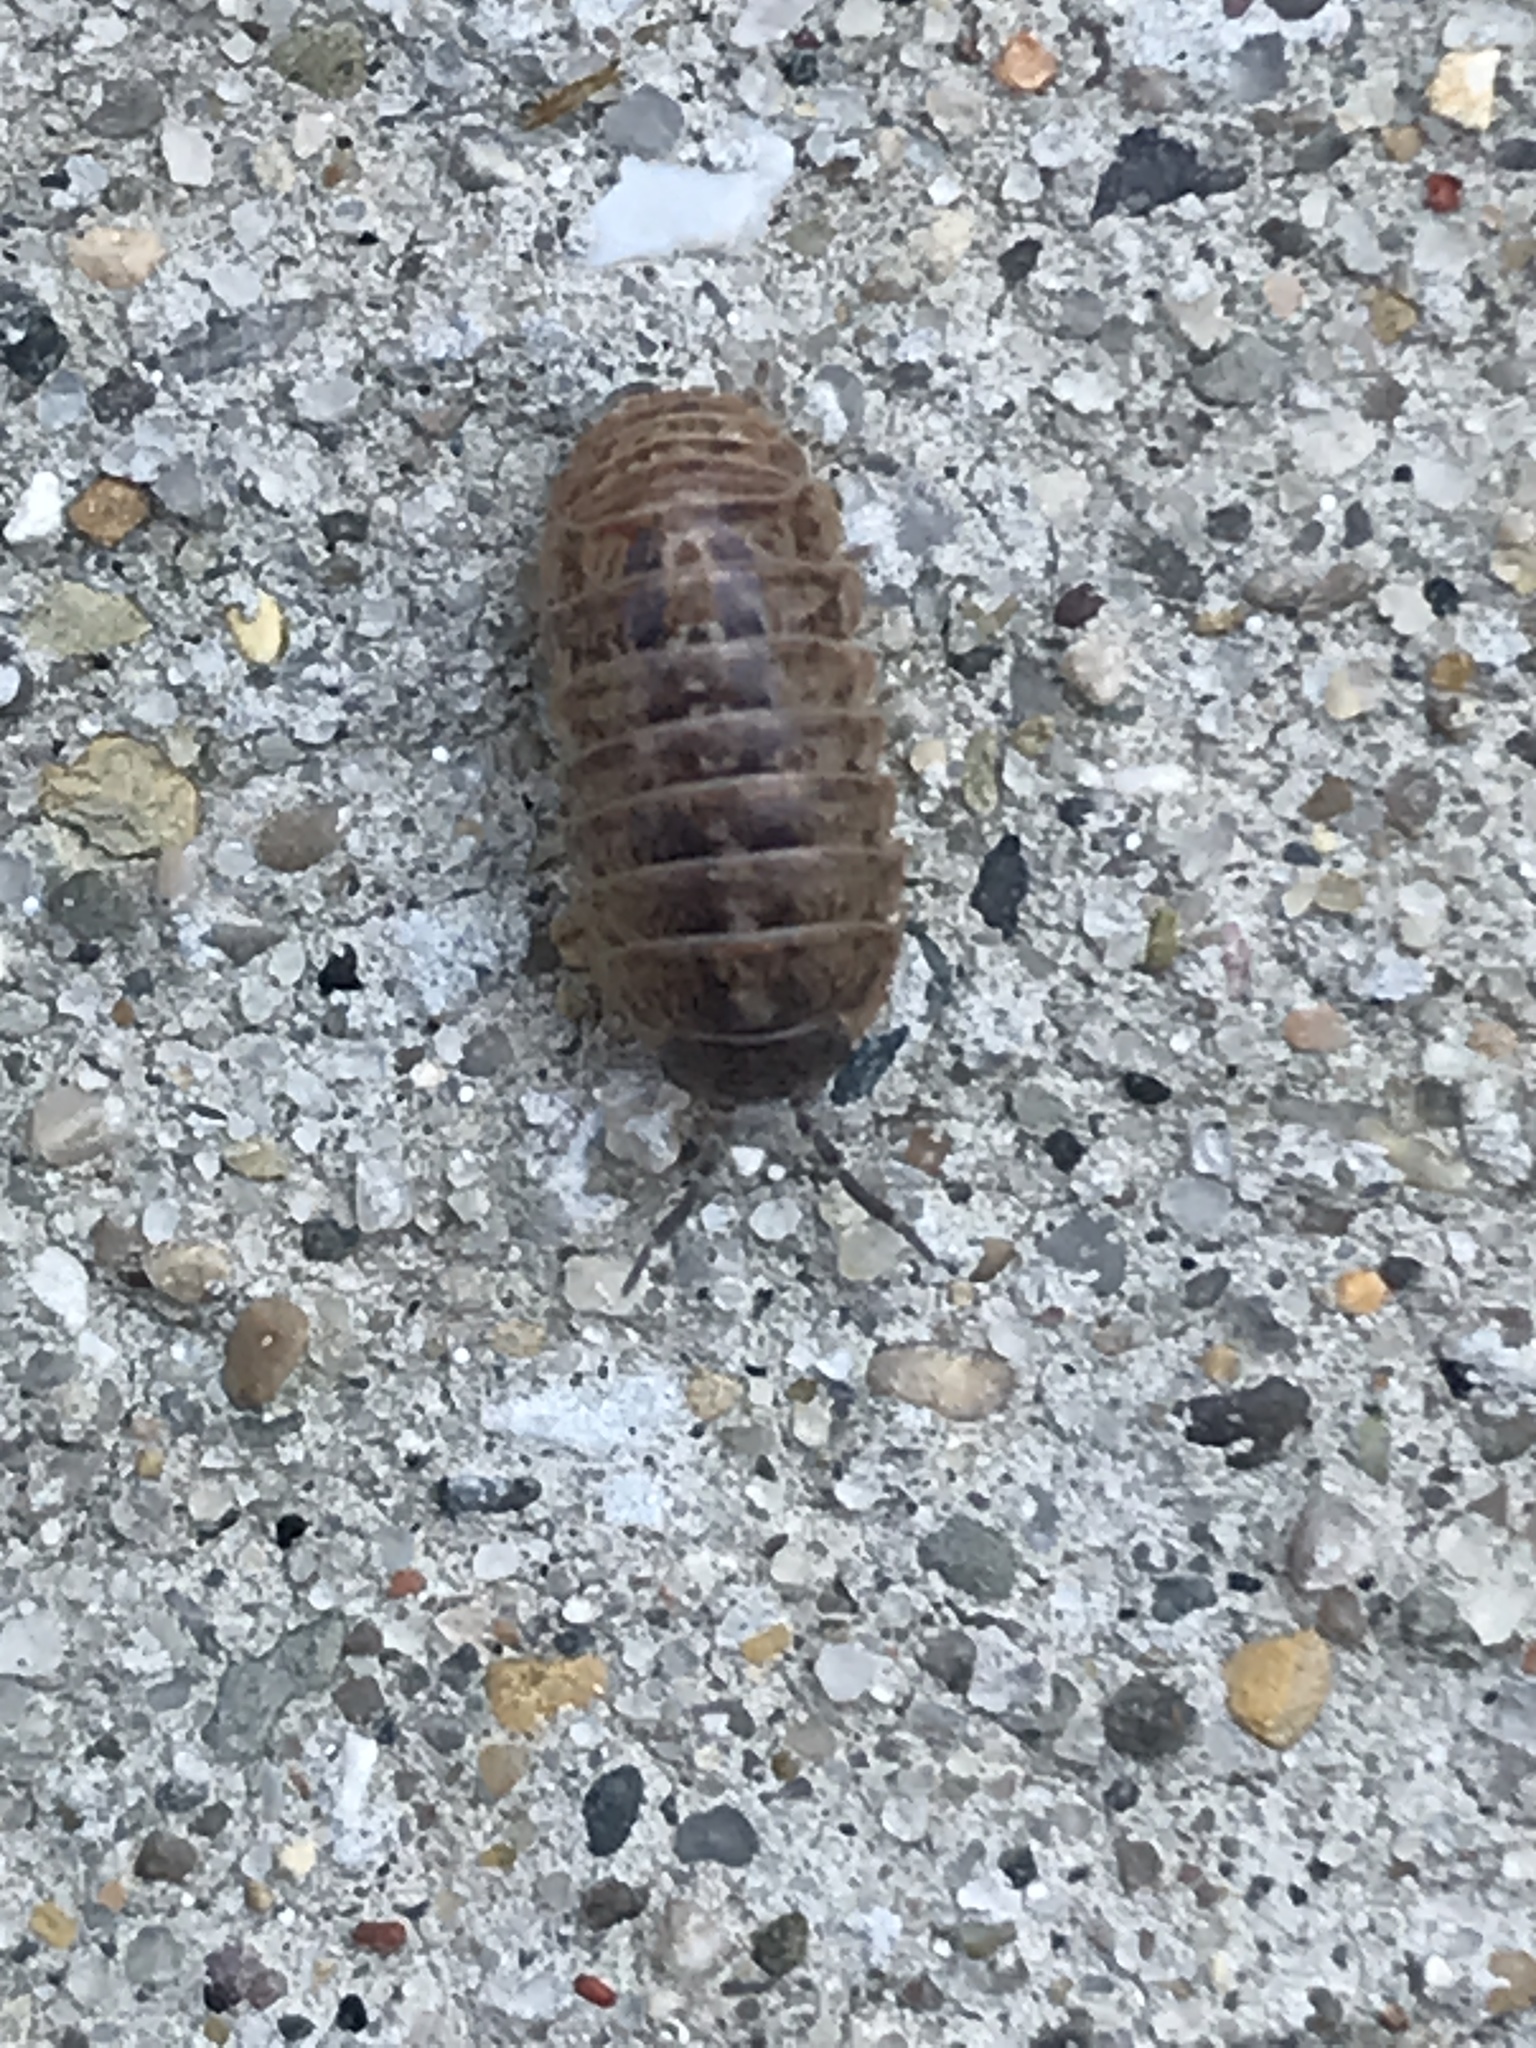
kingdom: Animalia
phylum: Arthropoda
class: Malacostraca
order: Isopoda
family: Armadillidiidae
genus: Armadillidium
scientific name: Armadillidium vulgare
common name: Common pill woodlouse
